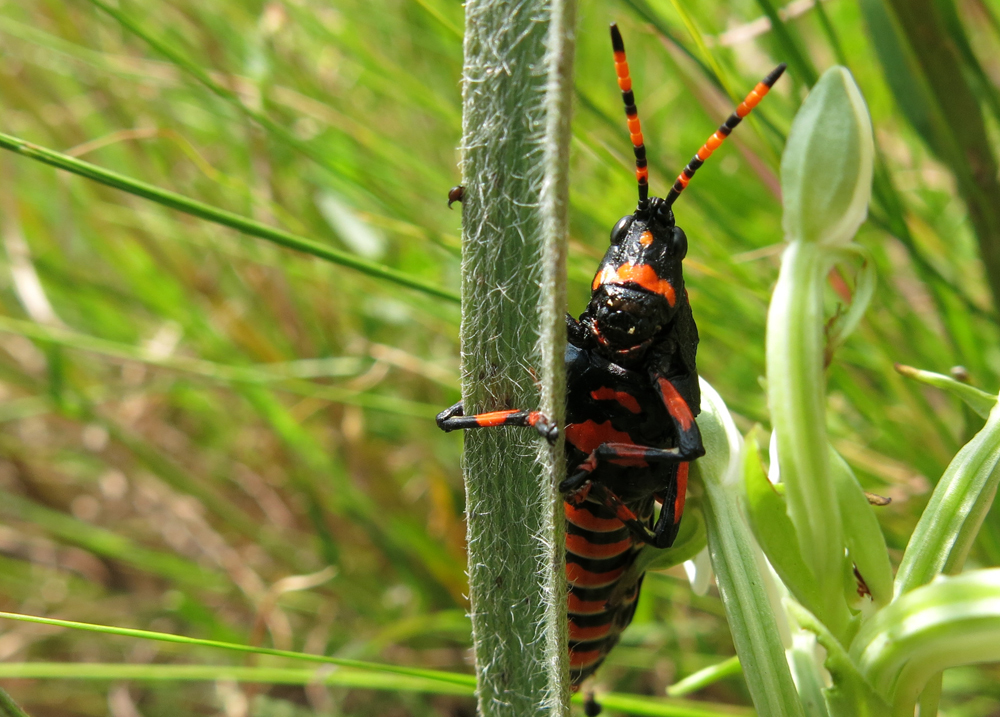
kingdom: Animalia
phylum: Arthropoda
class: Insecta
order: Orthoptera
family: Pyrgomorphidae
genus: Maura
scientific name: Maura rubroornata
